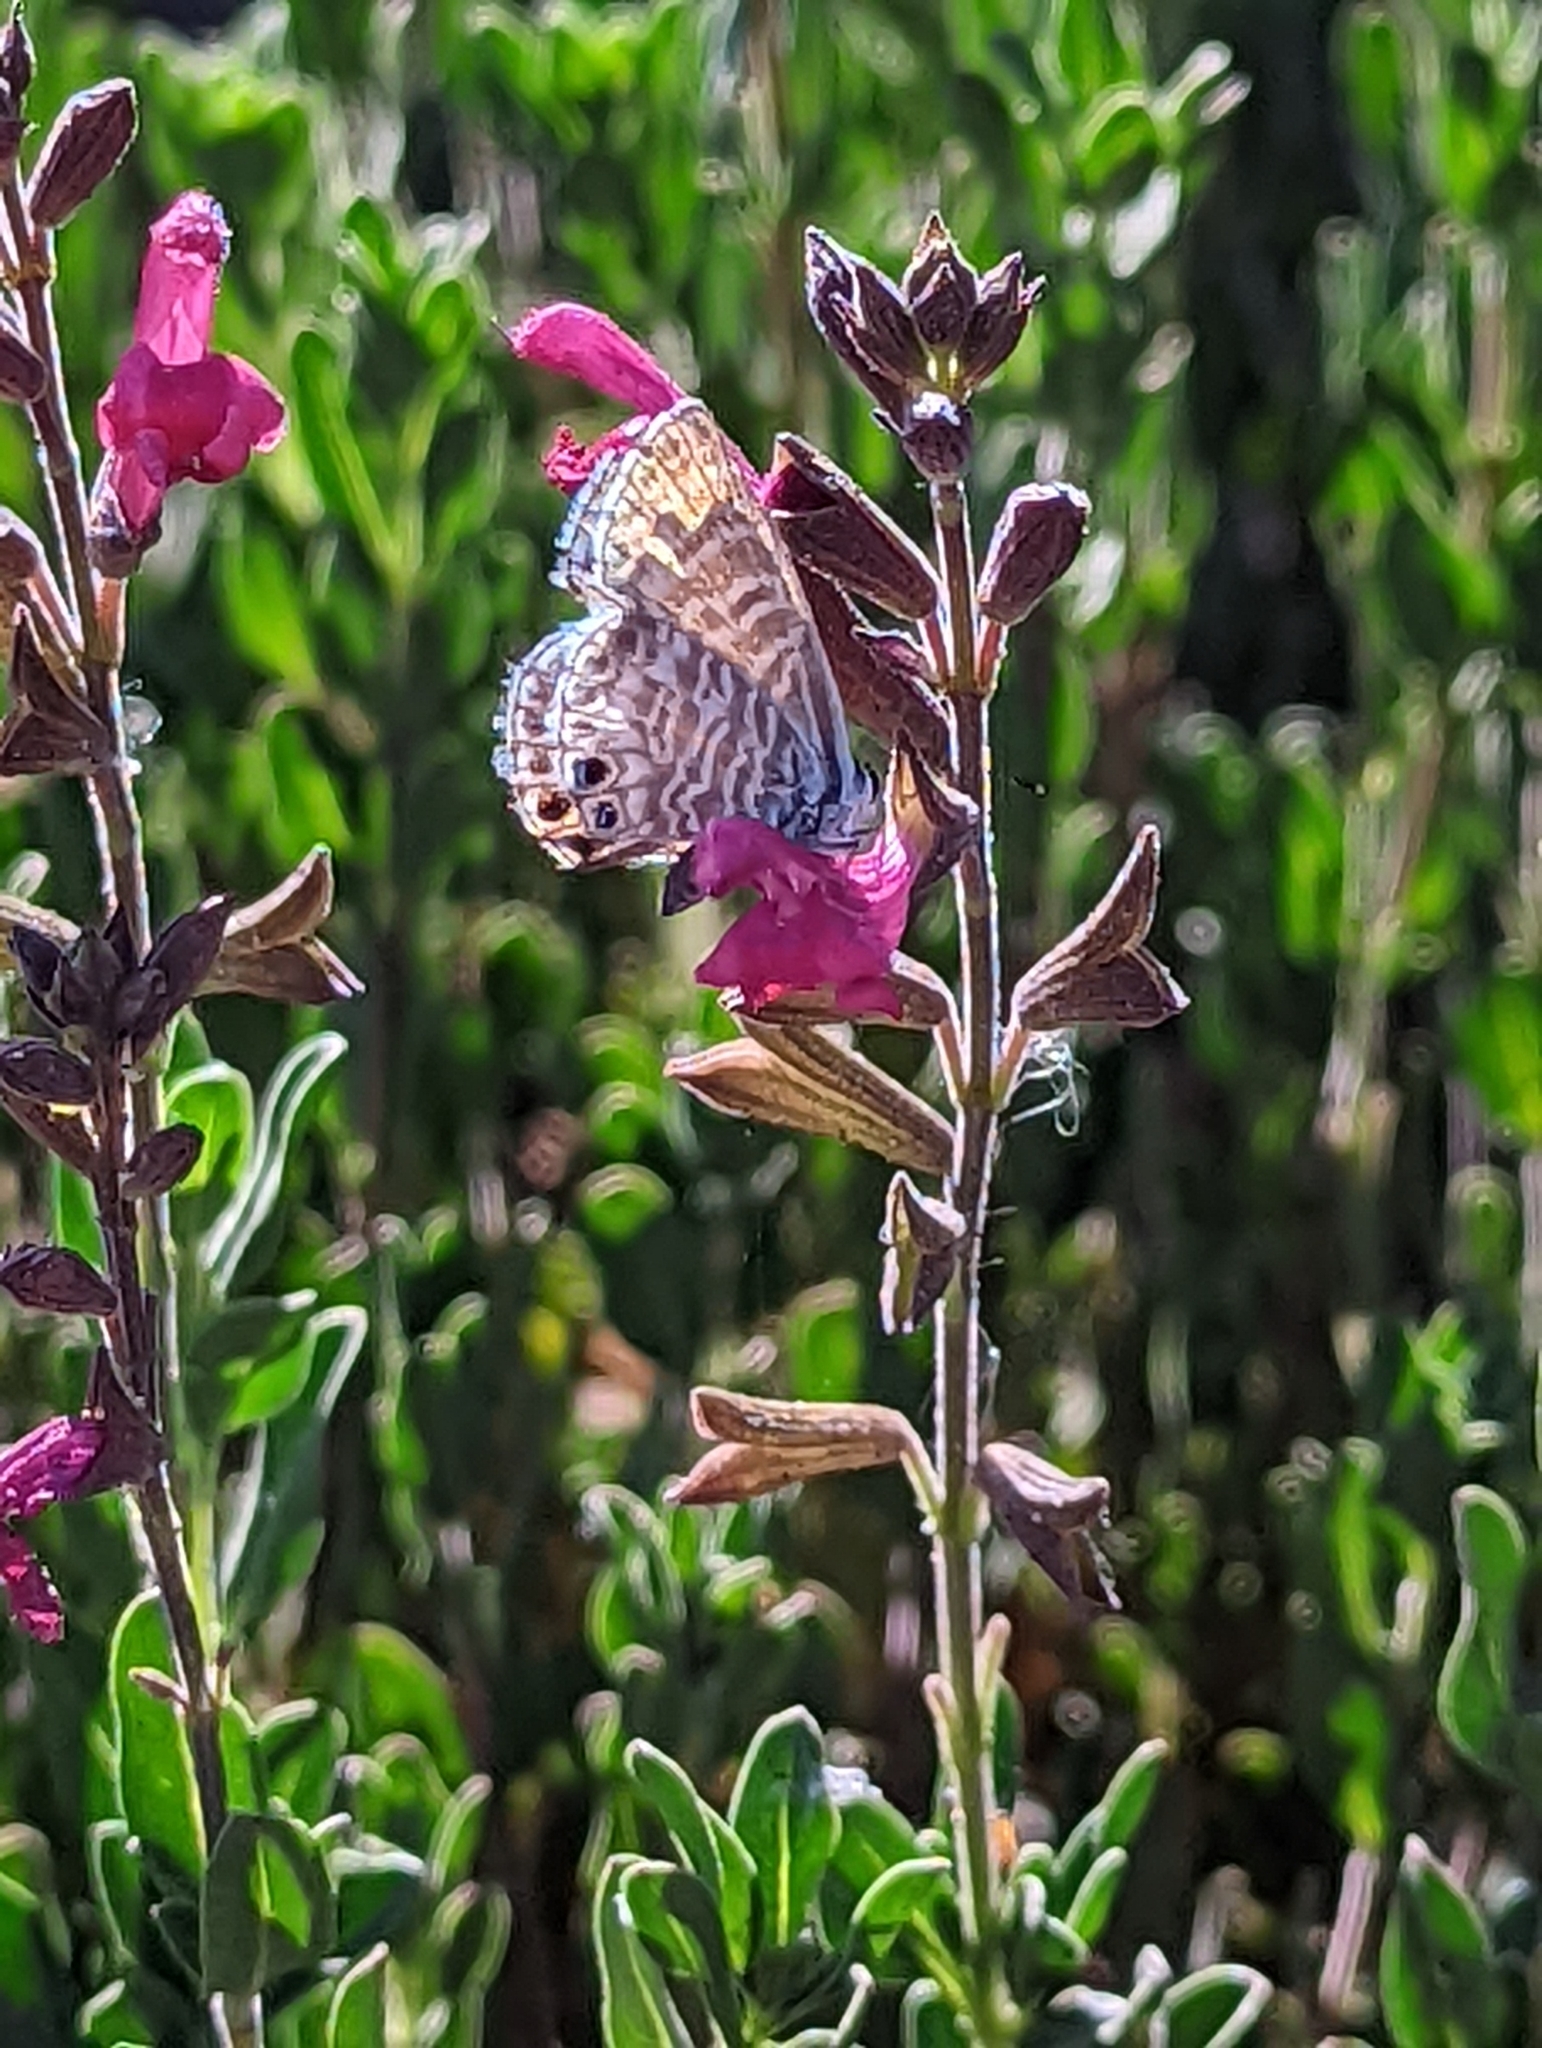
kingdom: Animalia
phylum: Arthropoda
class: Insecta
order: Lepidoptera
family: Lycaenidae
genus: Leptotes
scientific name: Leptotes marina
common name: Marine blue
